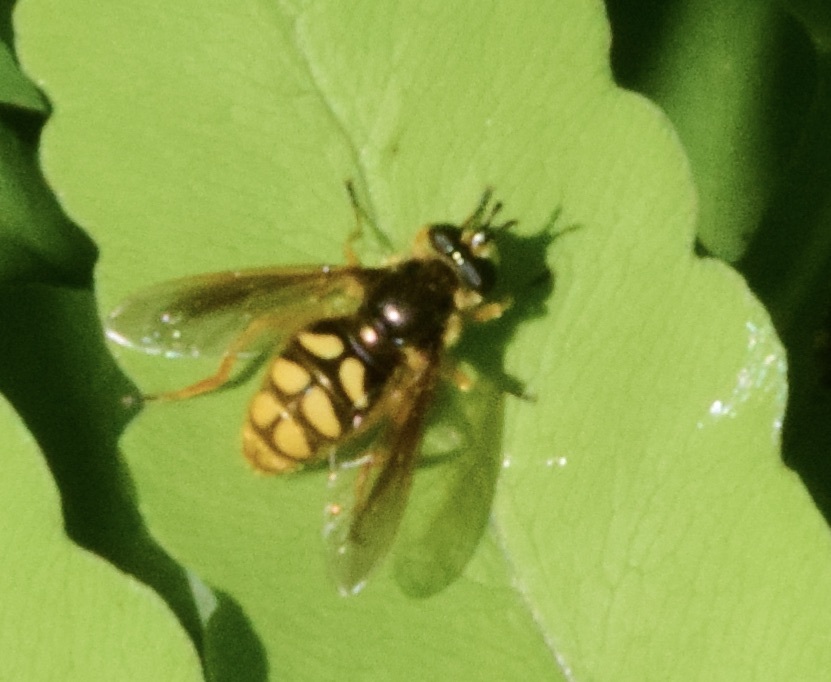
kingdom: Animalia
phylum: Arthropoda
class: Insecta
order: Diptera
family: Syrphidae
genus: Somula
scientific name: Somula decora
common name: Spotted wood fly
